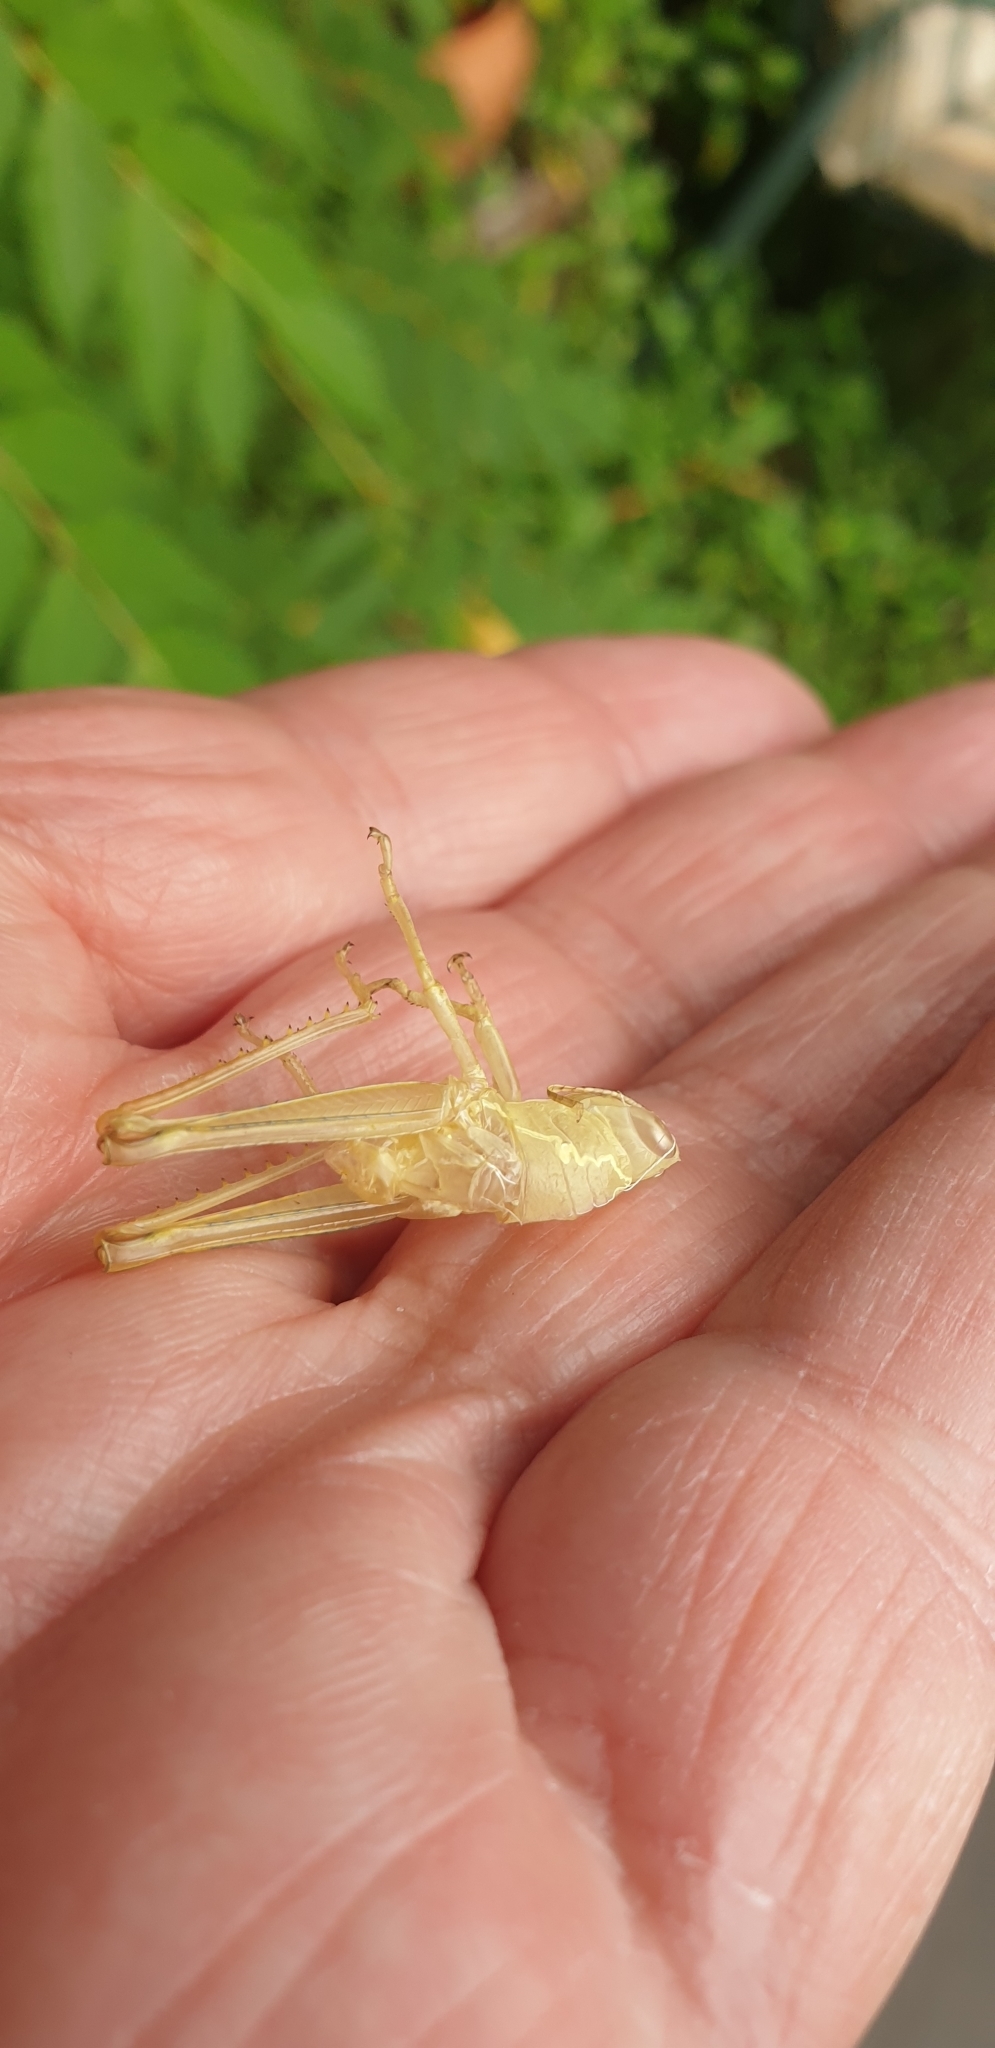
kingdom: Animalia
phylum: Arthropoda
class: Insecta
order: Orthoptera
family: Acrididae
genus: Valanga
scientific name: Valanga irregularis
